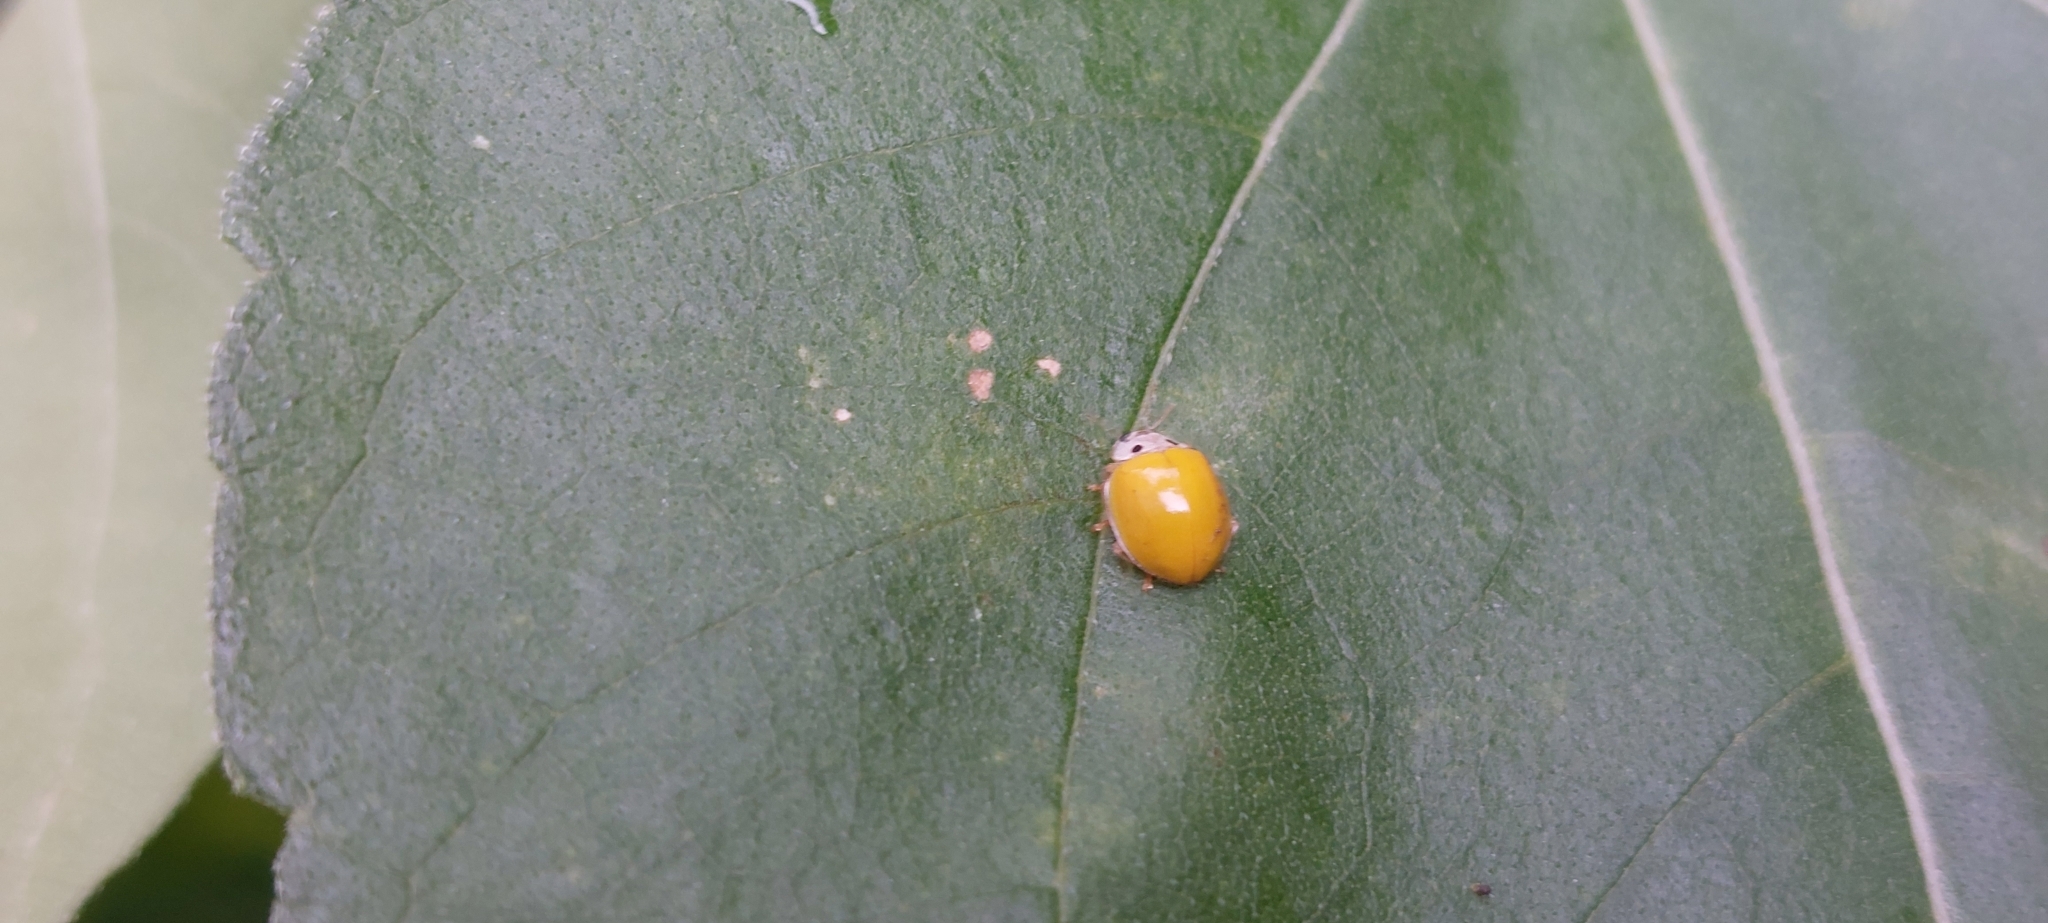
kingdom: Animalia
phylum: Arthropoda
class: Insecta
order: Coleoptera
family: Coccinellidae
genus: Illeis
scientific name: Illeis koebelei
